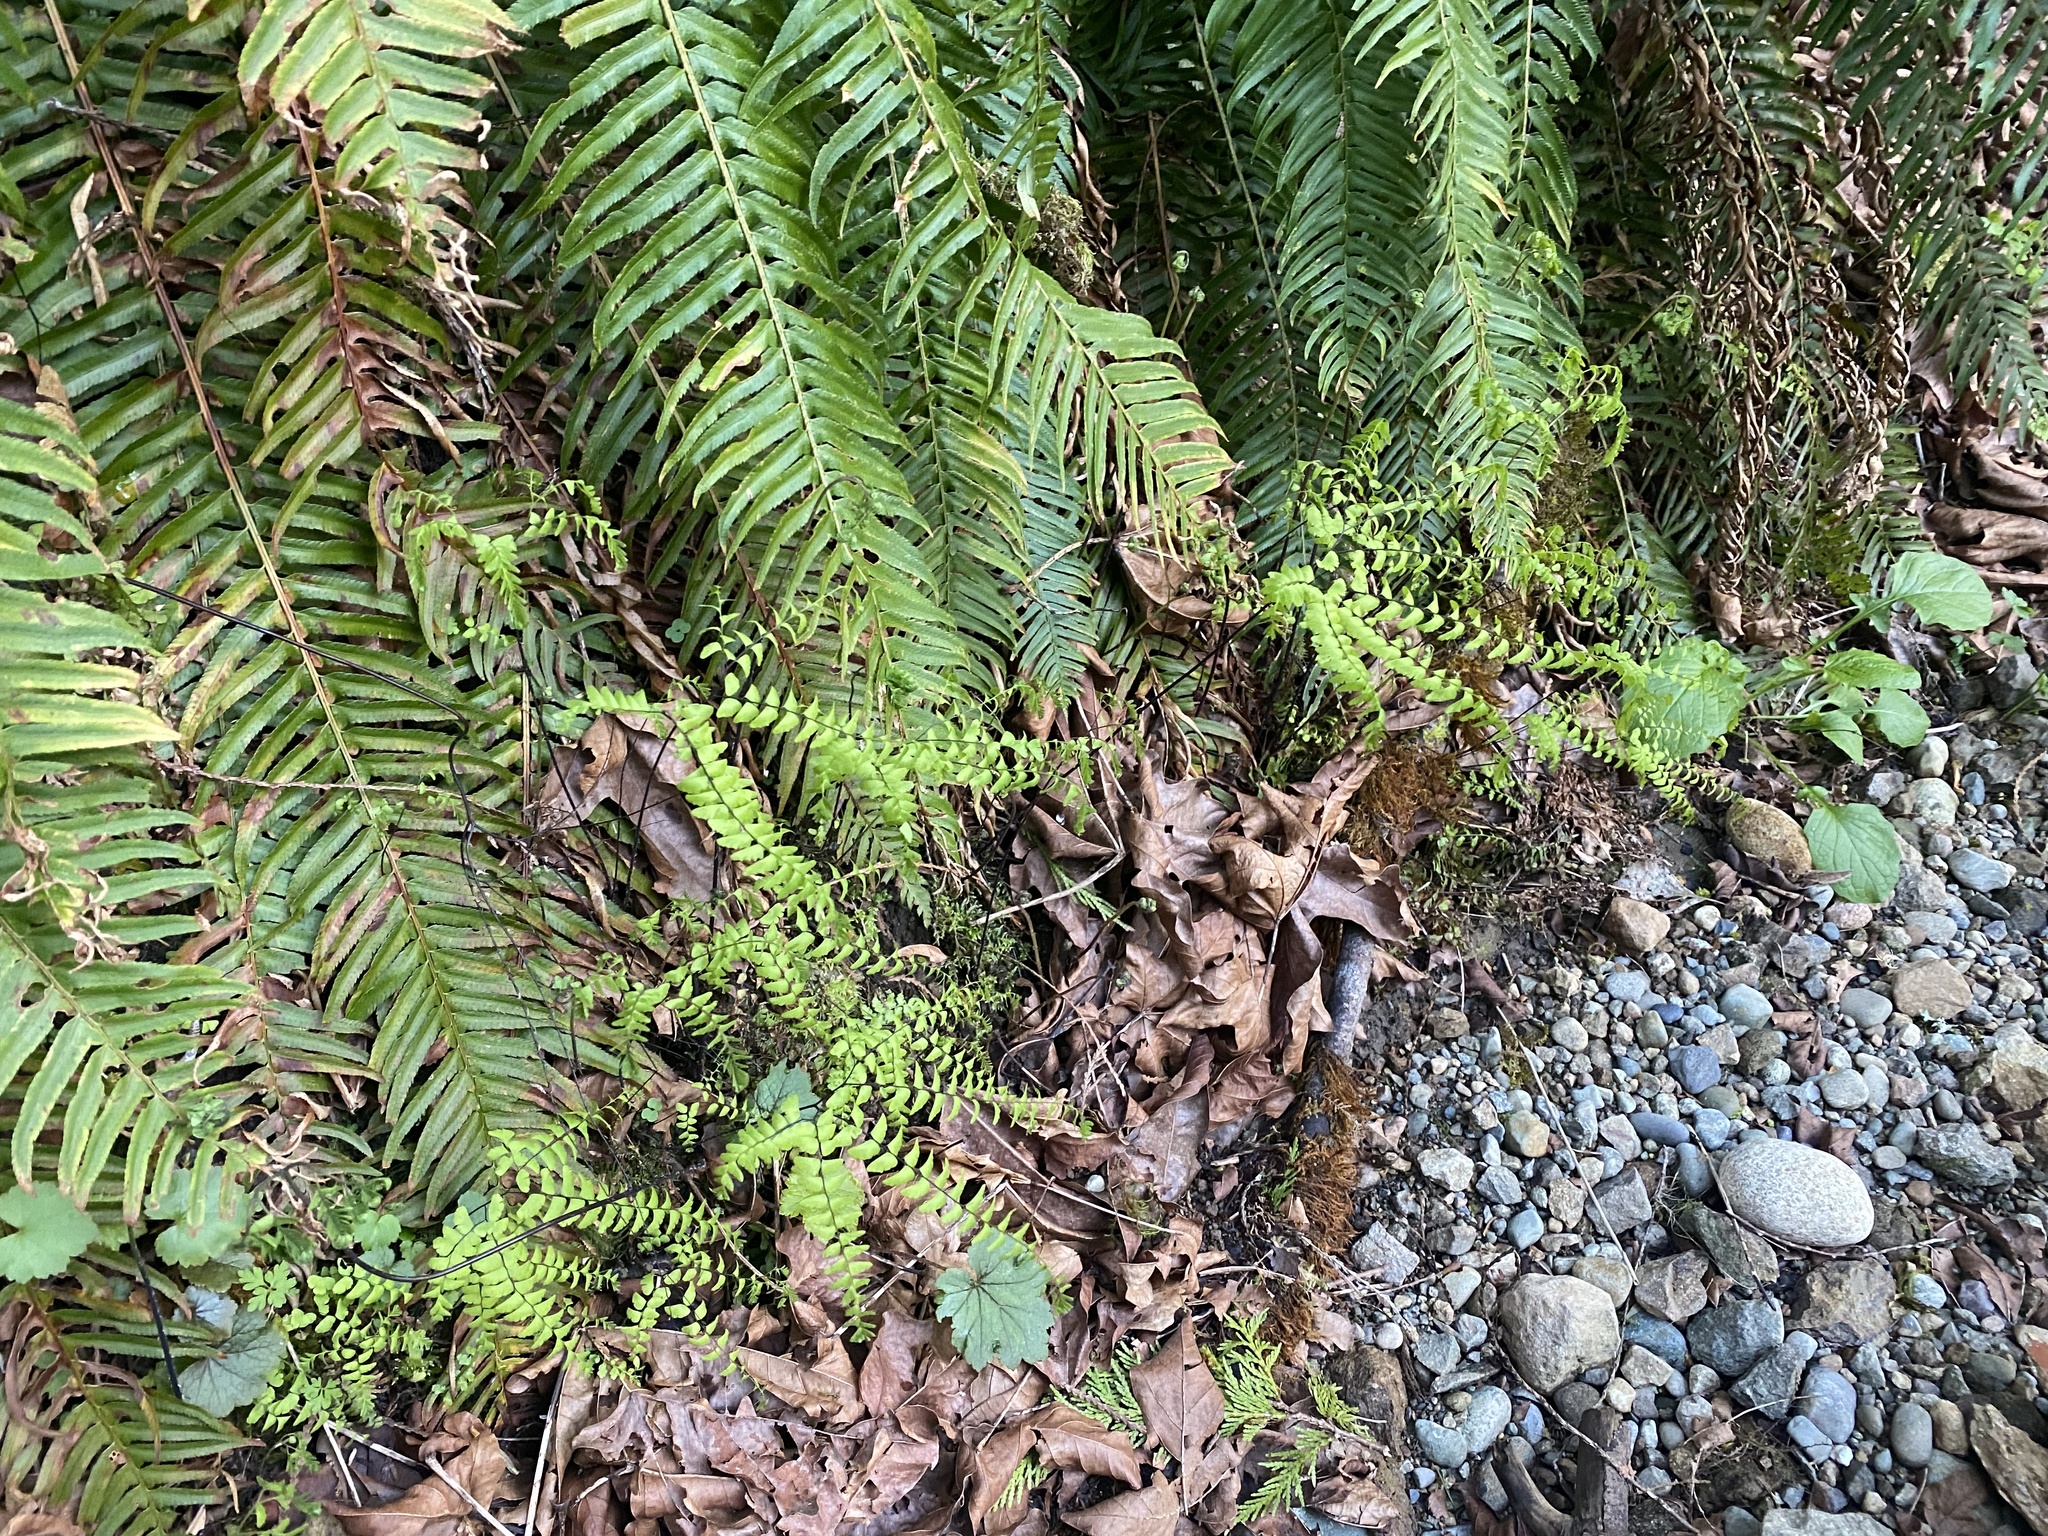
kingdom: Plantae
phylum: Tracheophyta
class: Polypodiopsida
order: Polypodiales
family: Pteridaceae
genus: Adiantum
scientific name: Adiantum aleuticum
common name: Aleutian maidenhair fern
